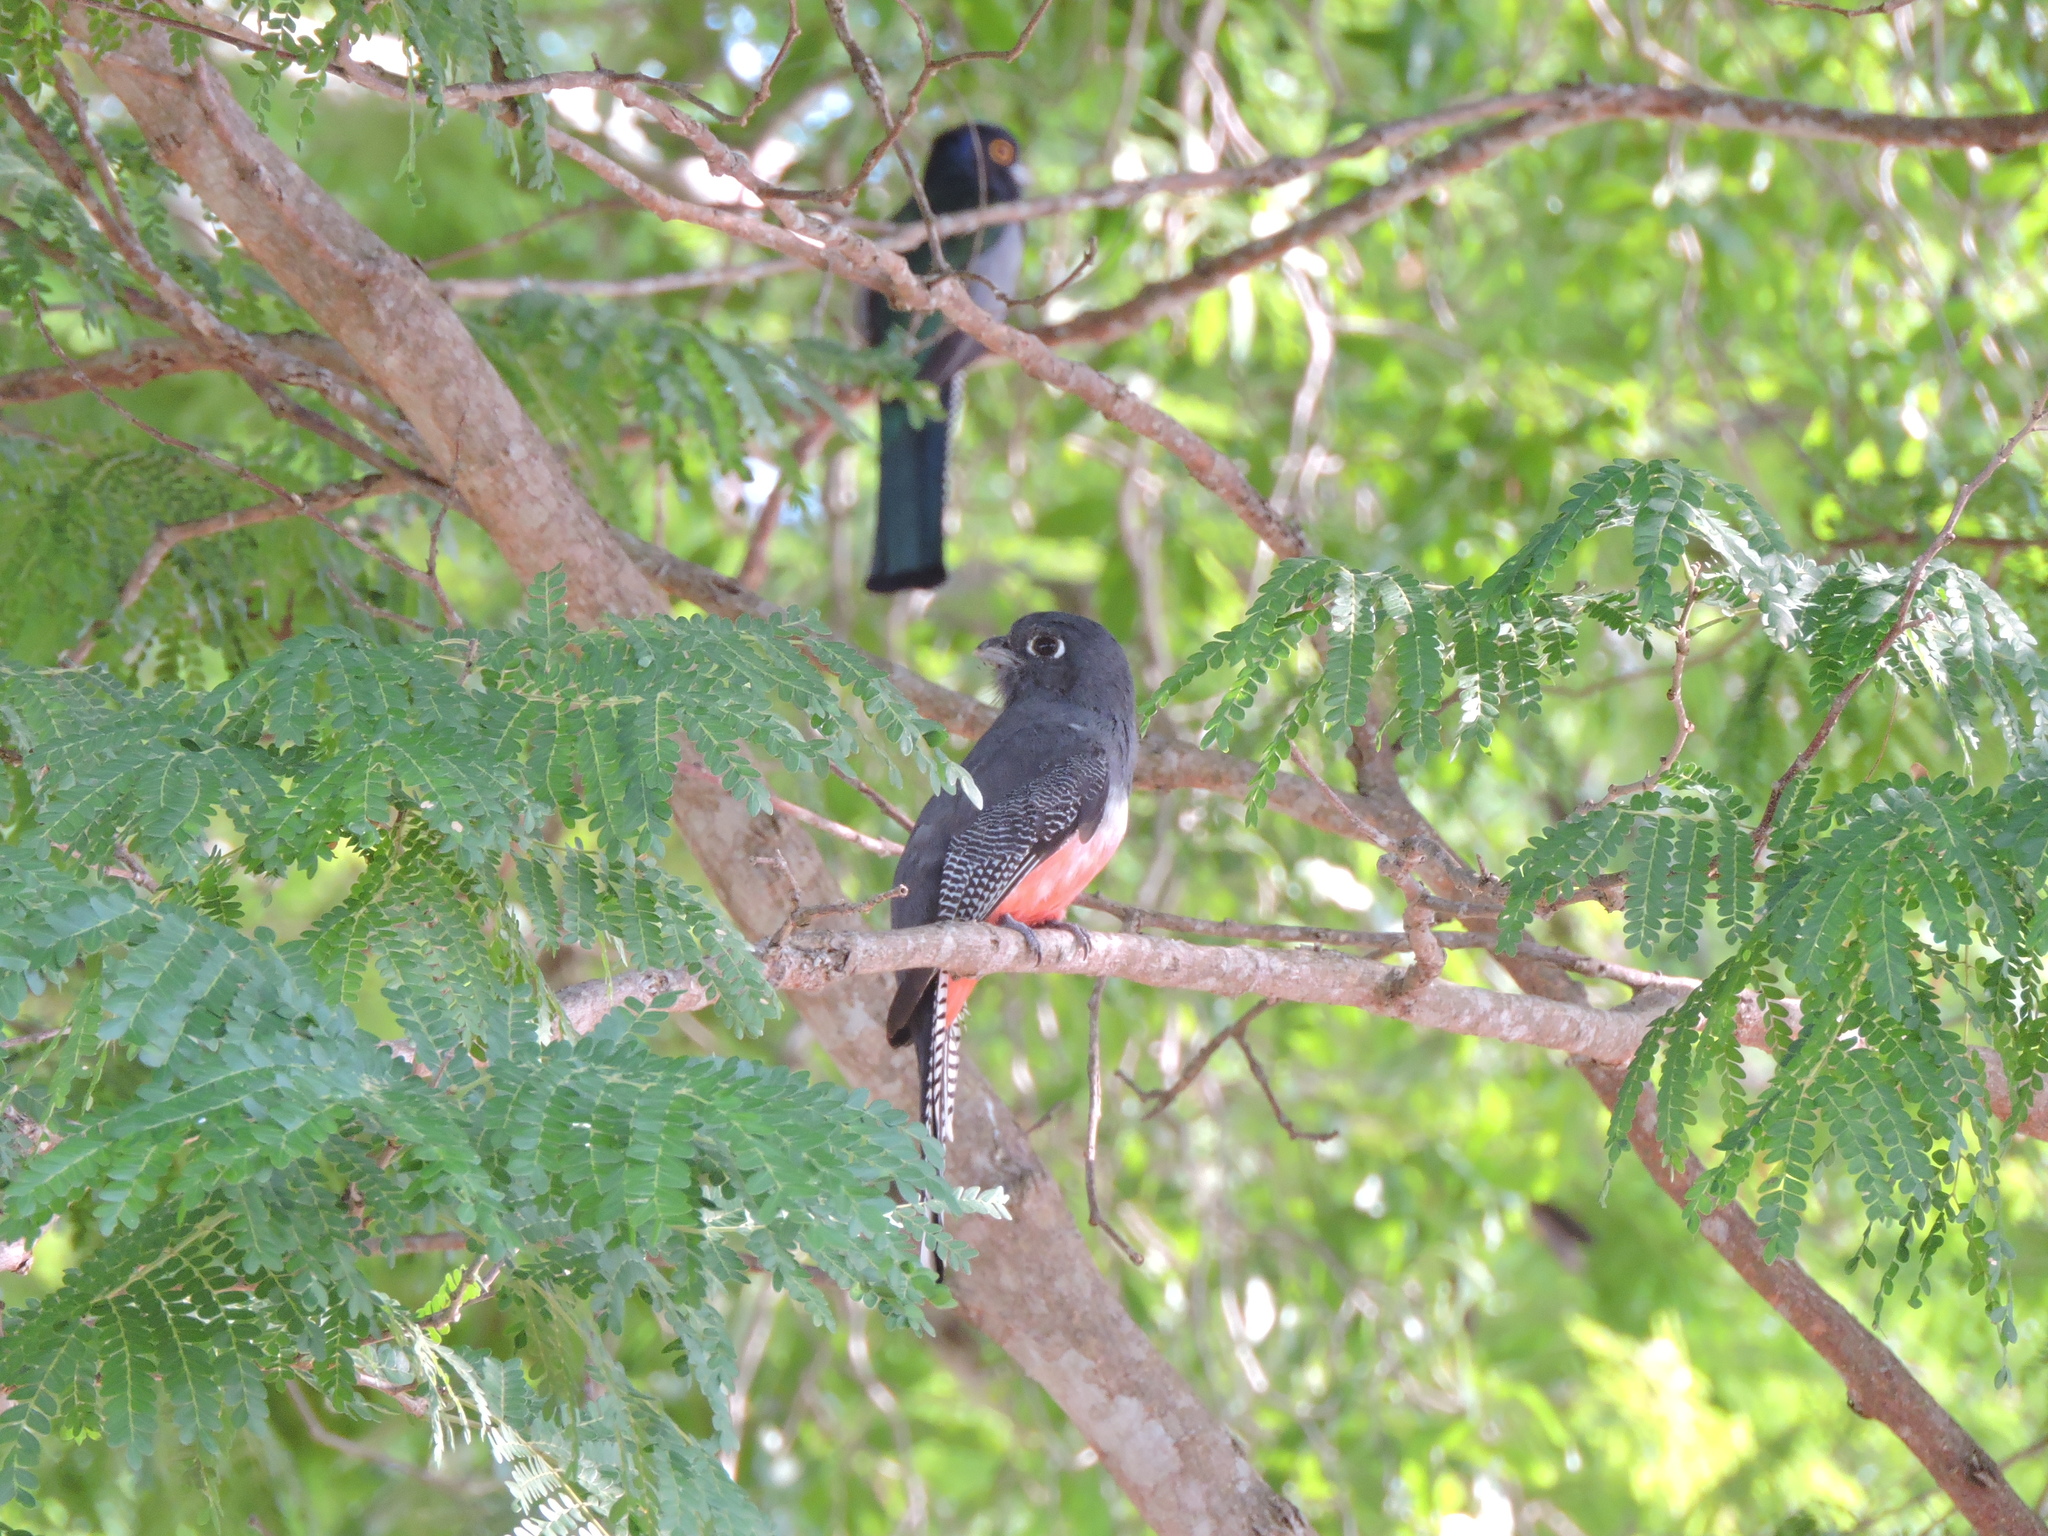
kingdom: Animalia
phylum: Chordata
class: Aves
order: Trogoniformes
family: Trogonidae
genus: Trogon
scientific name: Trogon curucui
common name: Blue-crowned trogon
